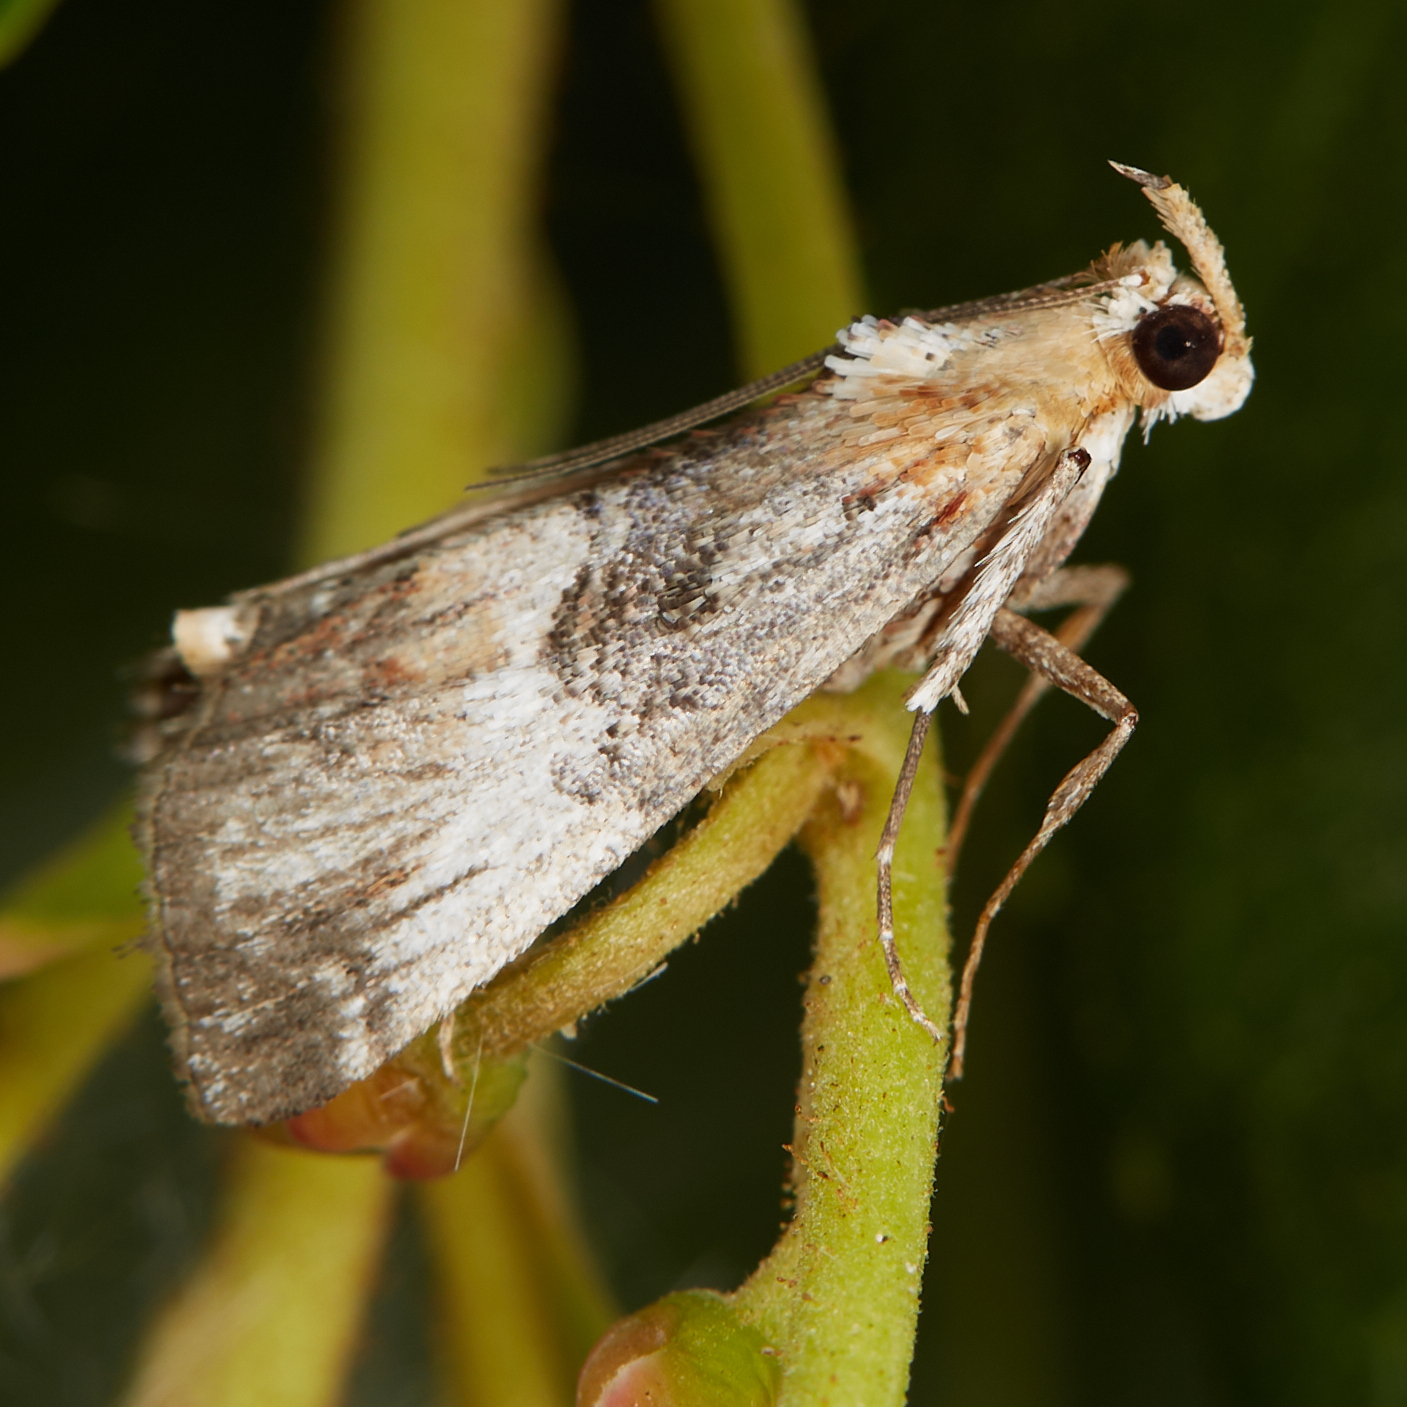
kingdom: Animalia
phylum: Arthropoda
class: Insecta
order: Lepidoptera
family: Pyralidae
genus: Toripalpus
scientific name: Toripalpus trabalis
